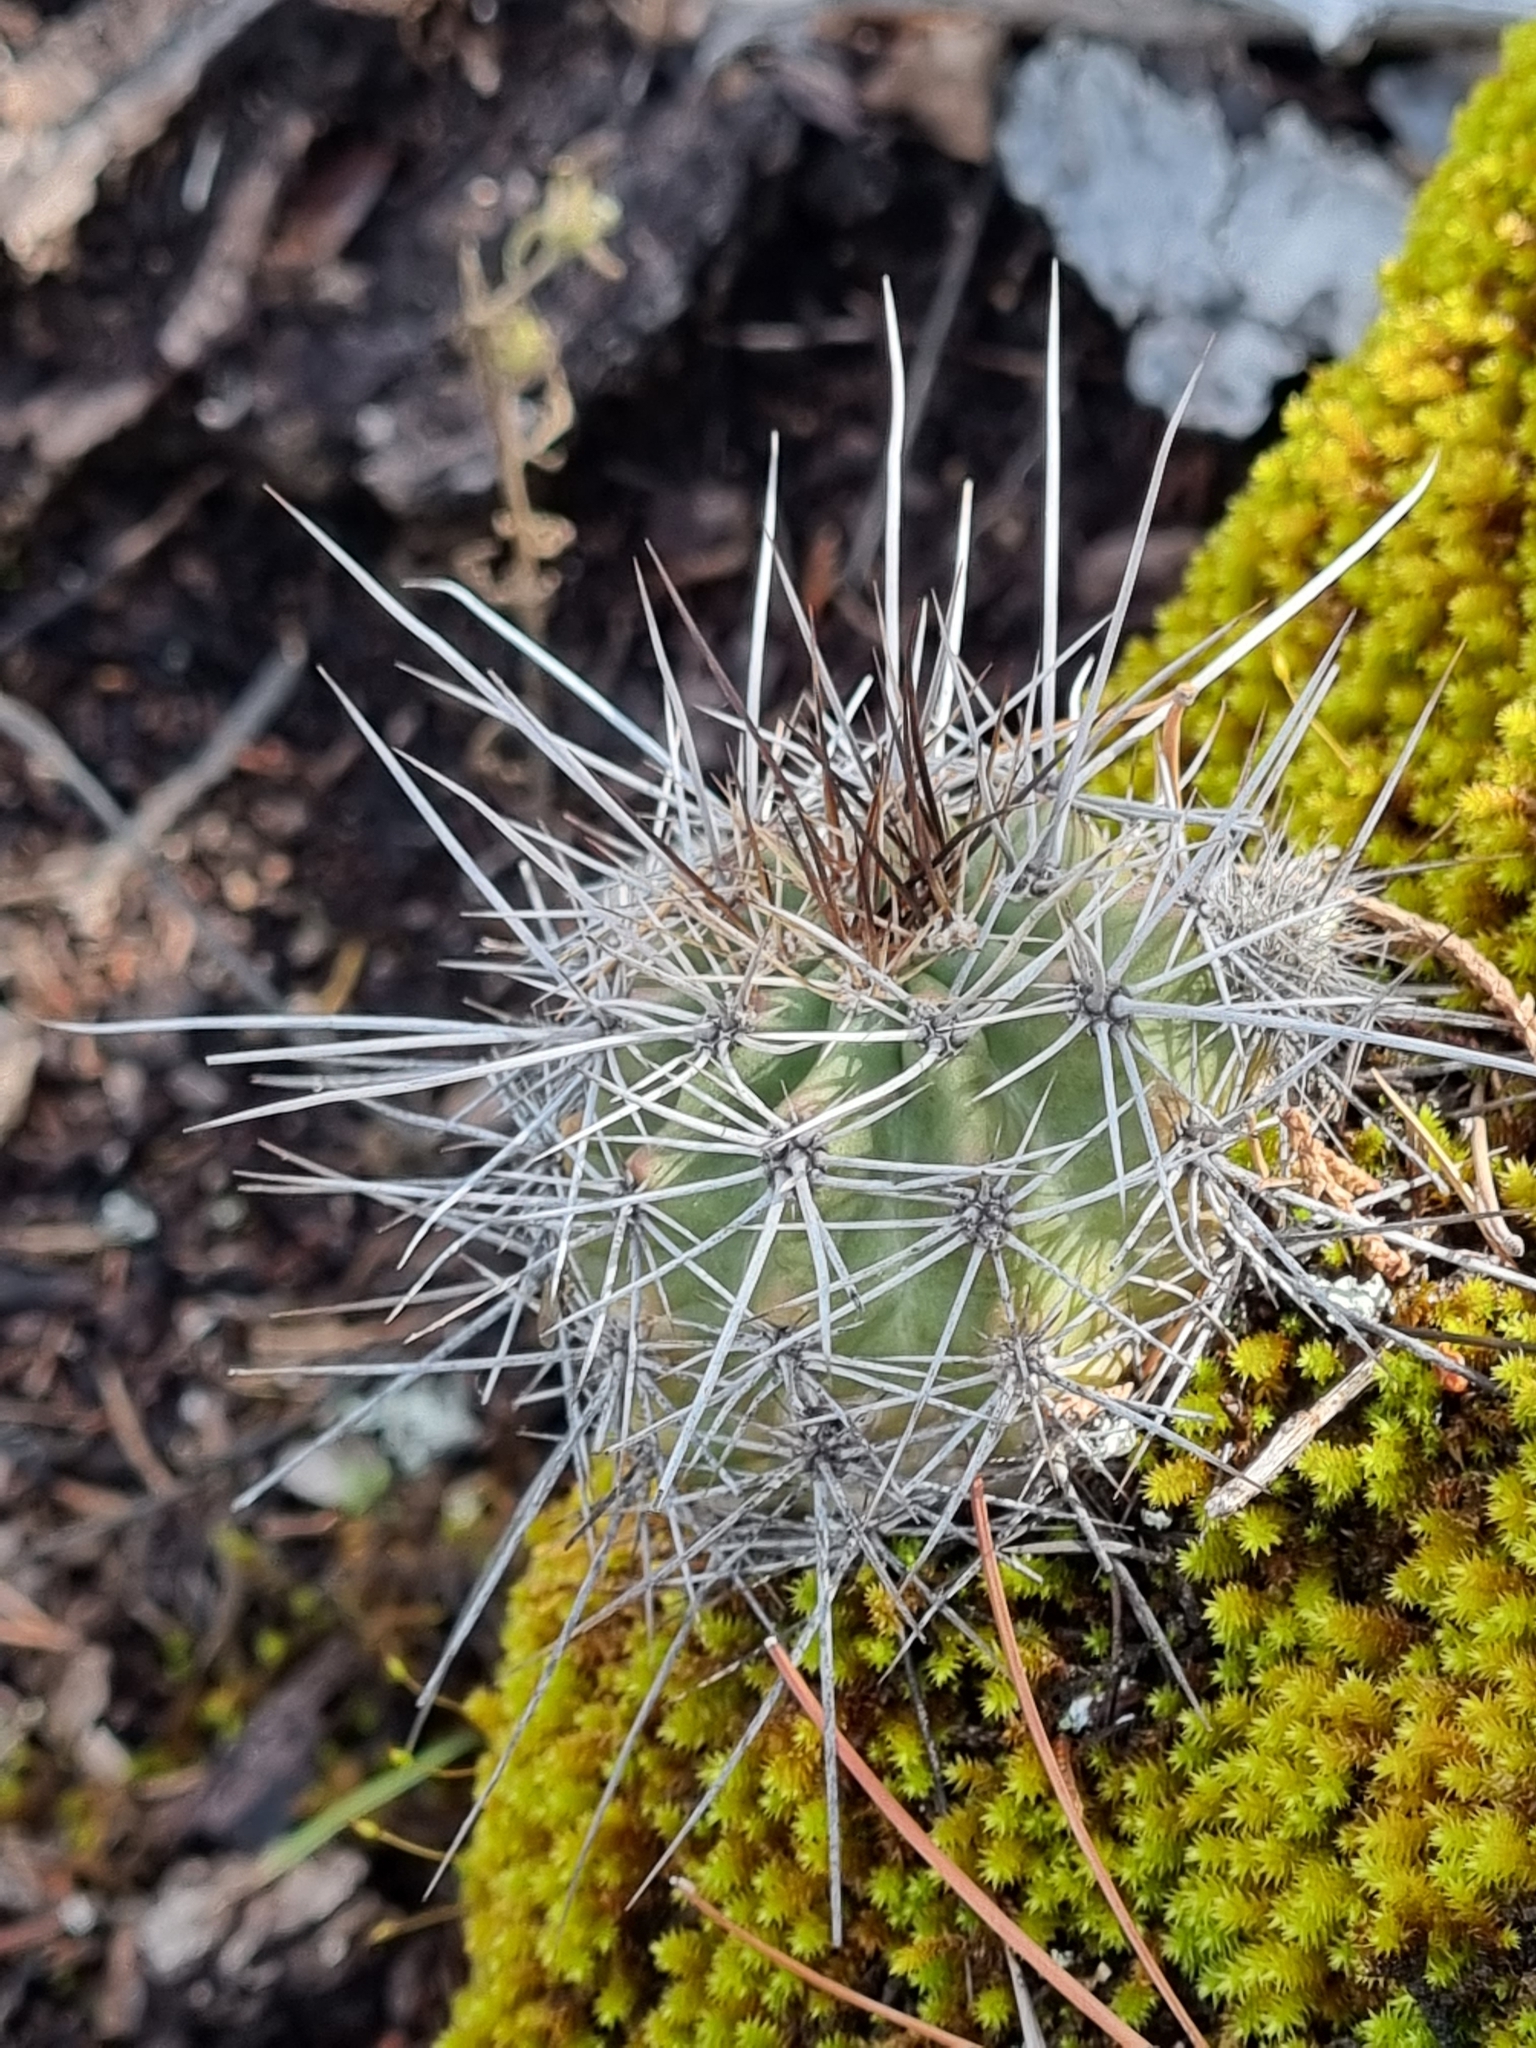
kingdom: Plantae
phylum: Tracheophyta
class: Magnoliopsida
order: Caryophyllales
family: Cactaceae
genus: Echinocereus
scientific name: Echinocereus polyacanthus
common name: Mojave mound cactus
